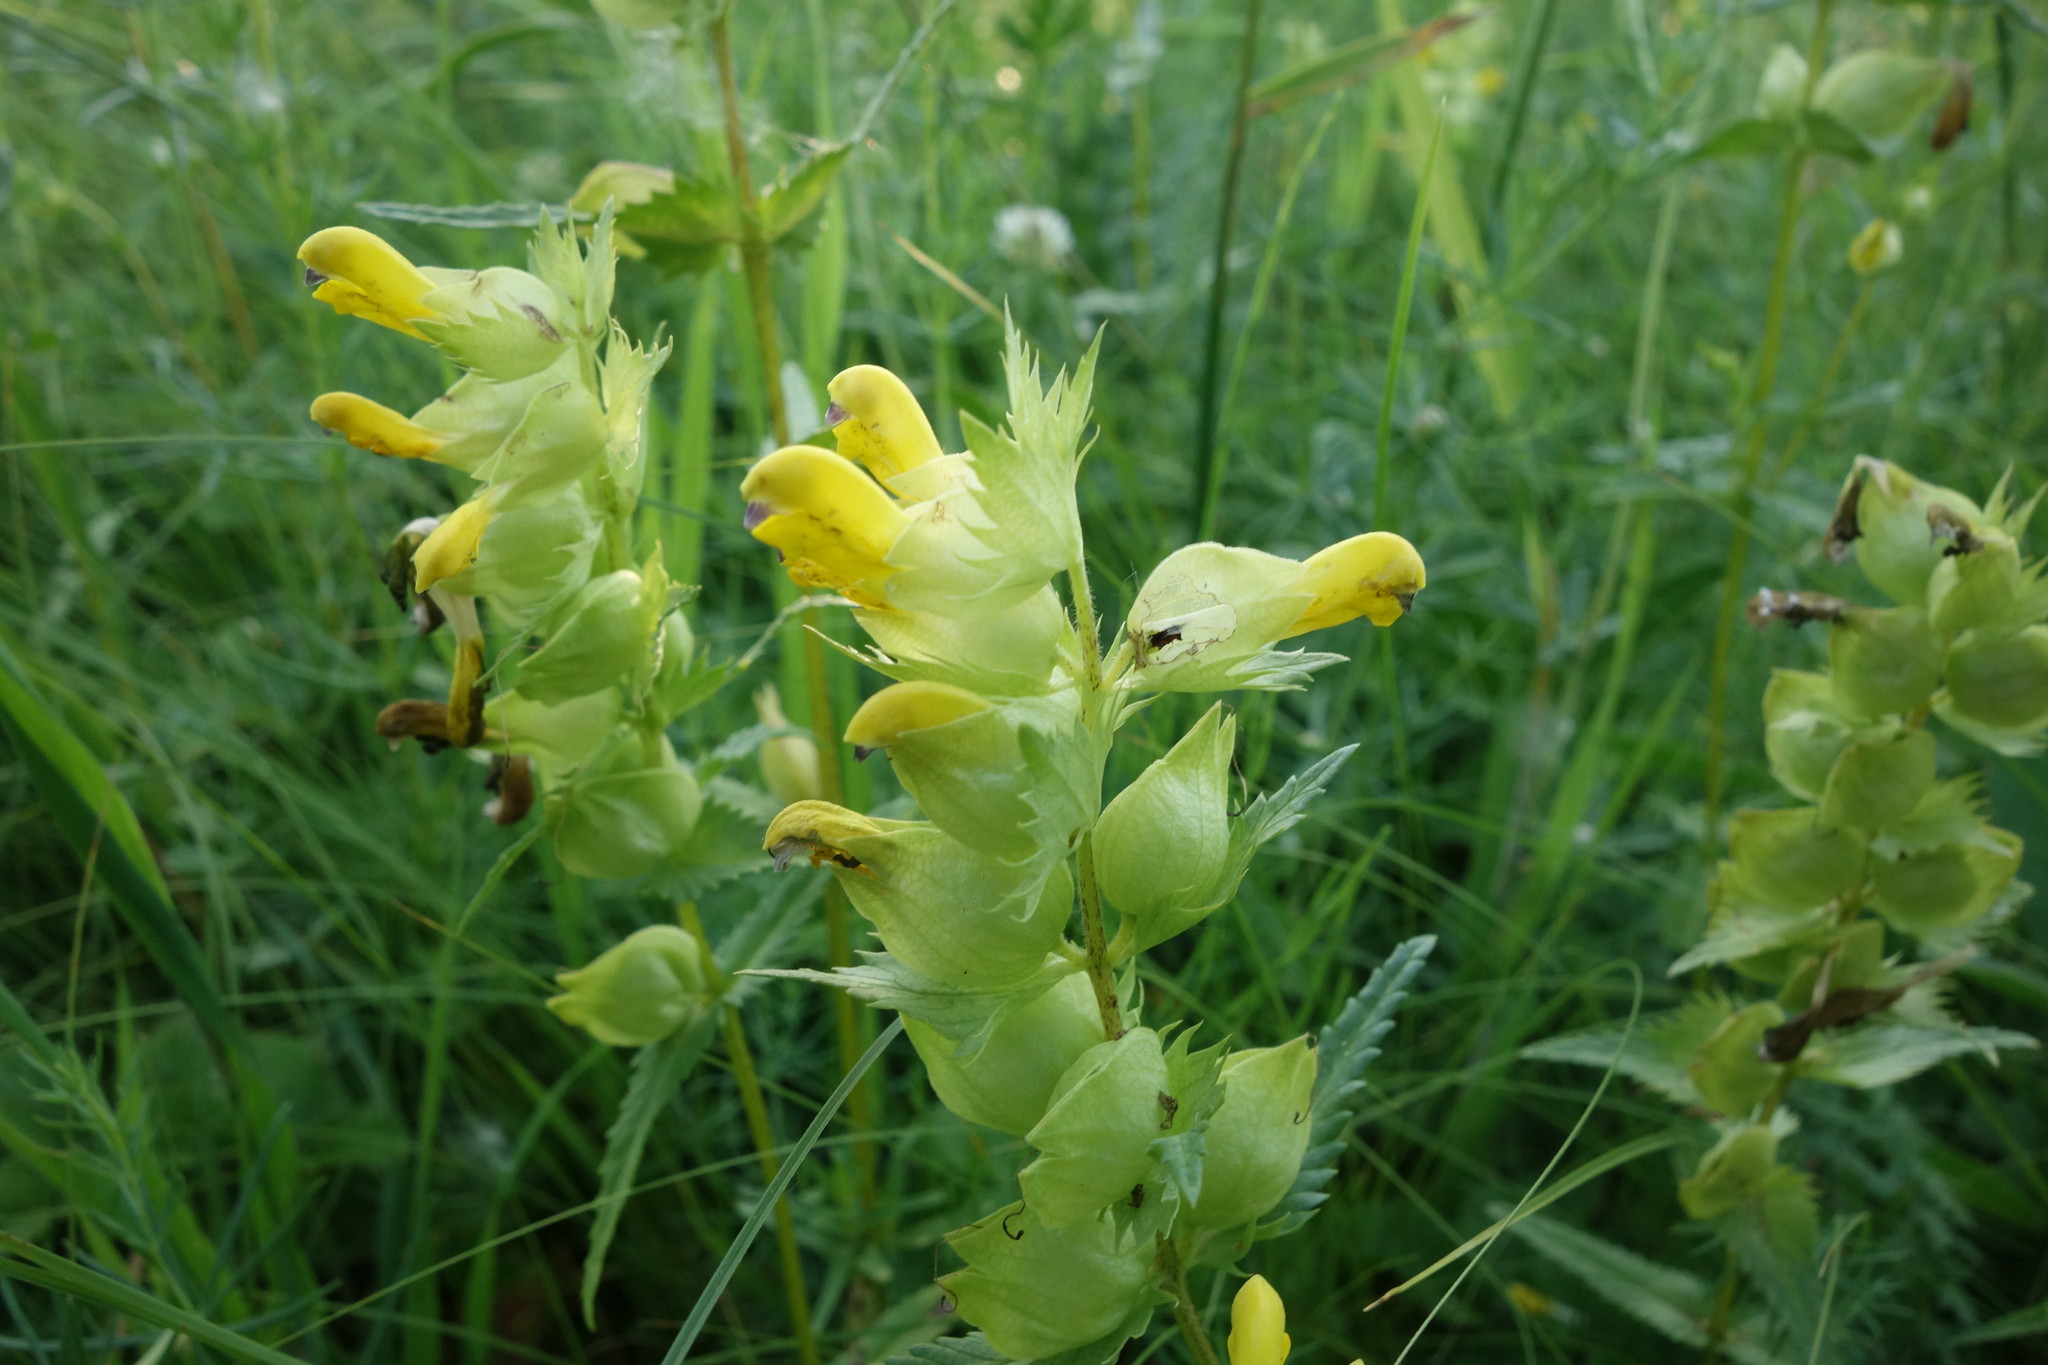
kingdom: Plantae
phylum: Tracheophyta
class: Magnoliopsida
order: Lamiales
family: Orobanchaceae
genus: Rhinanthus
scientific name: Rhinanthus serotinus
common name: Late-flowering yellow rattle
